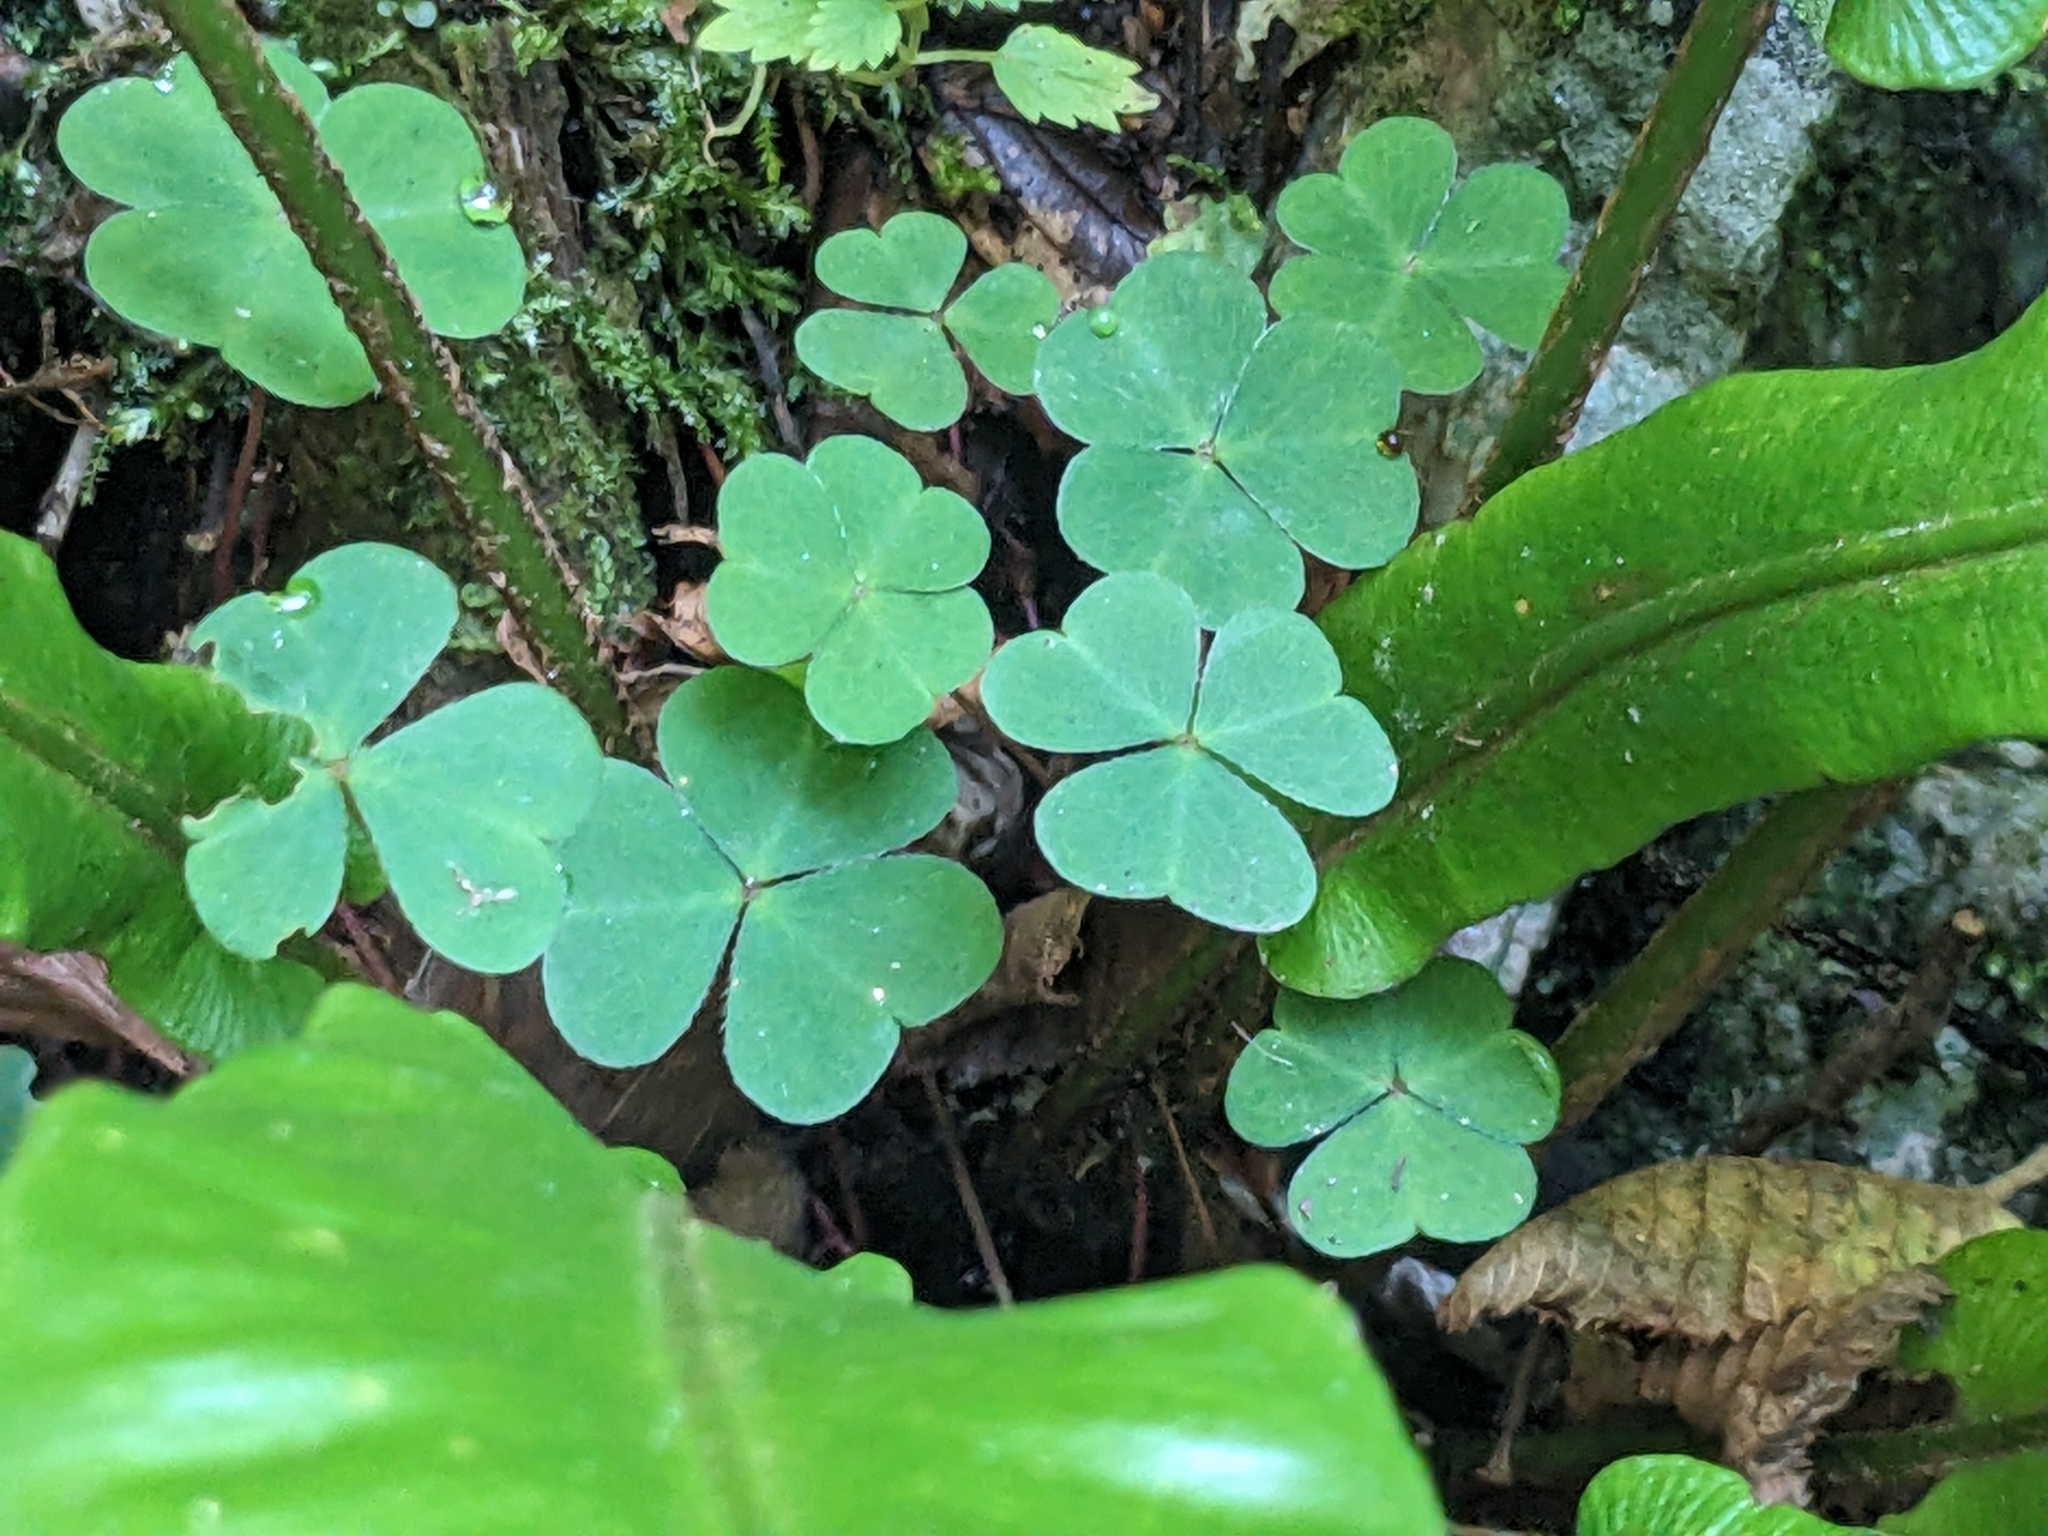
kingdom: Plantae
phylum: Tracheophyta
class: Magnoliopsida
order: Oxalidales
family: Oxalidaceae
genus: Oxalis
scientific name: Oxalis acetosella
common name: Wood-sorrel
